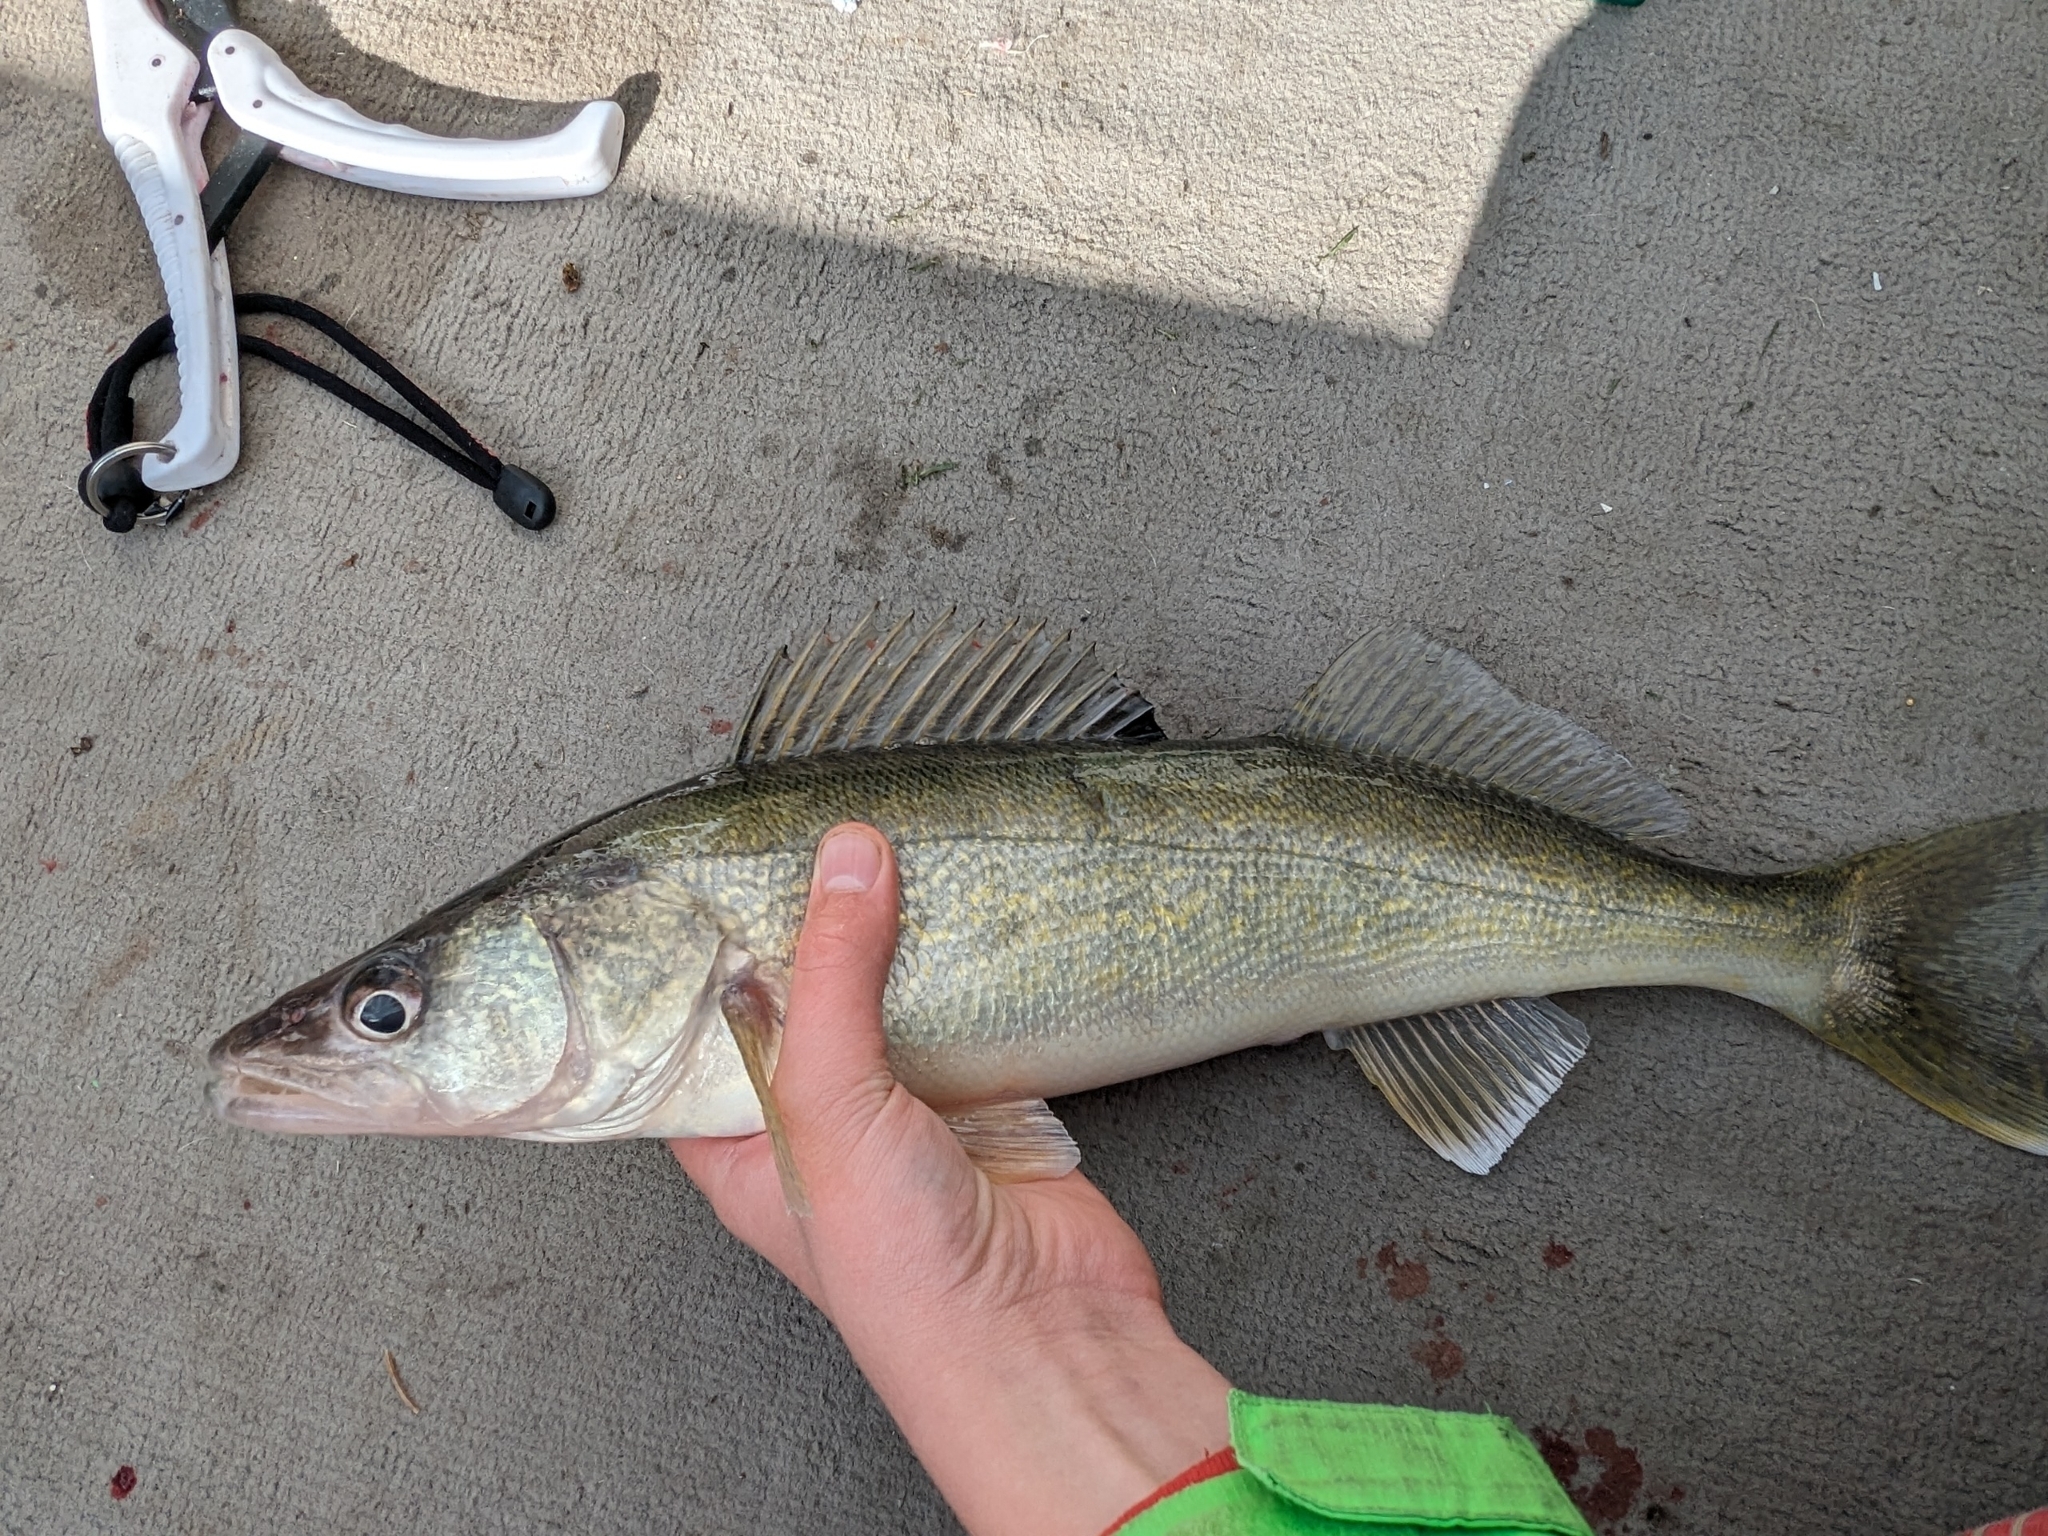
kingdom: Animalia
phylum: Chordata
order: Perciformes
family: Percidae
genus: Sander
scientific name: Sander vitreus
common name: Walleye
